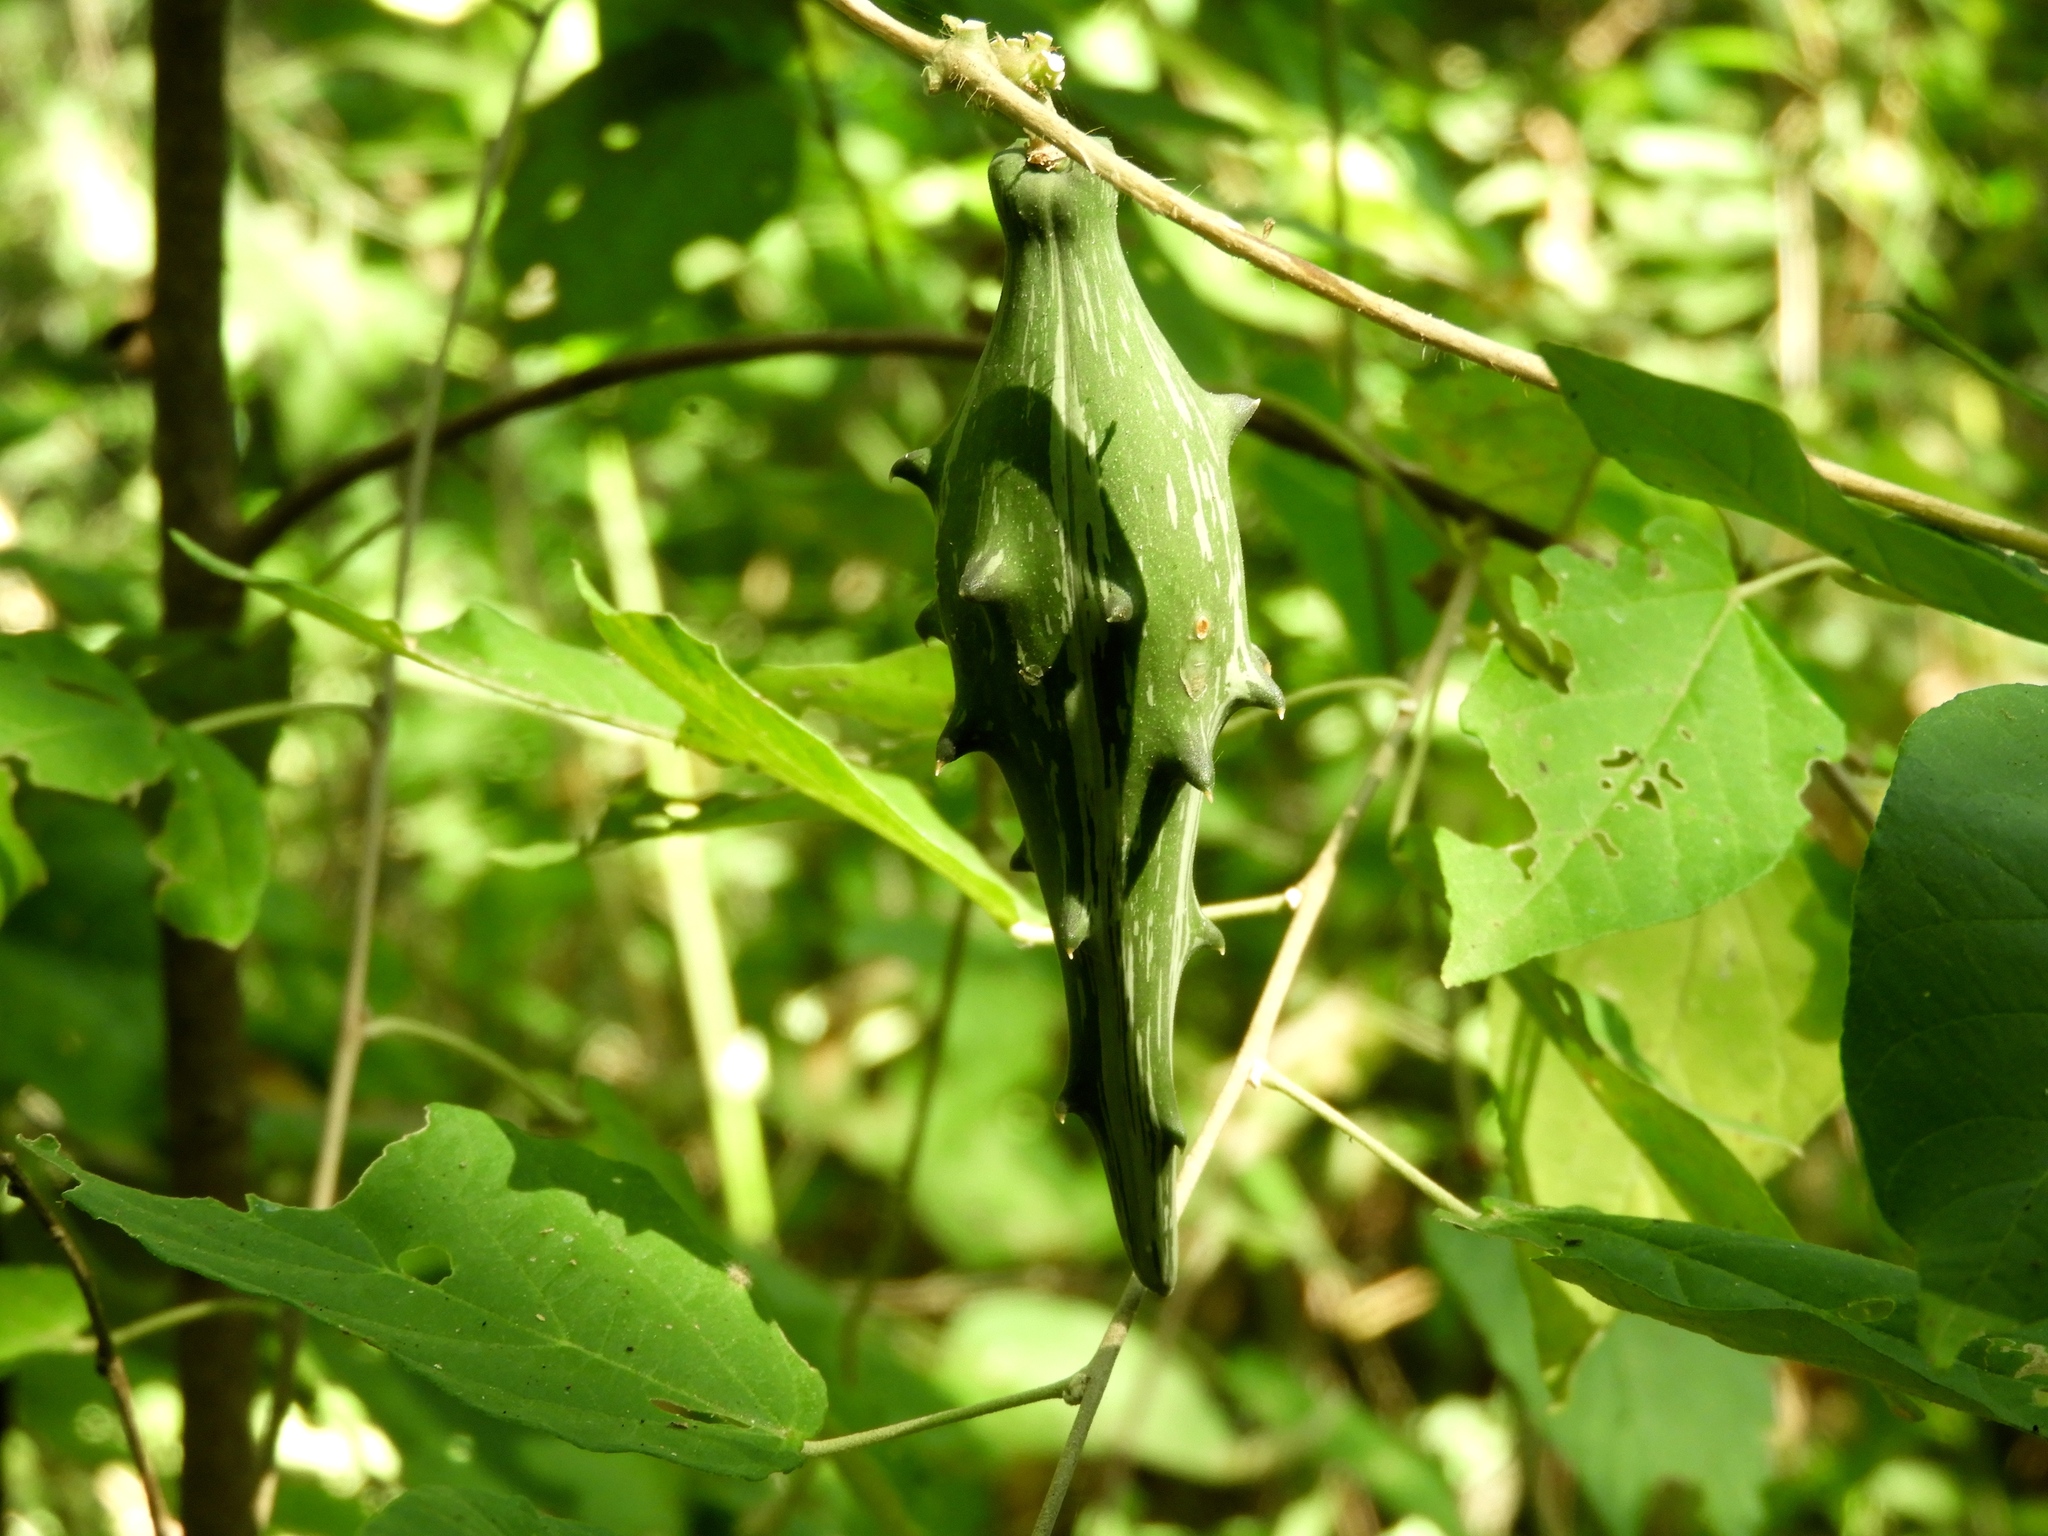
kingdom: Plantae
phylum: Tracheophyta
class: Magnoliopsida
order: Gentianales
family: Apocynaceae
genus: Dictyanthus
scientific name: Dictyanthus sepicola
